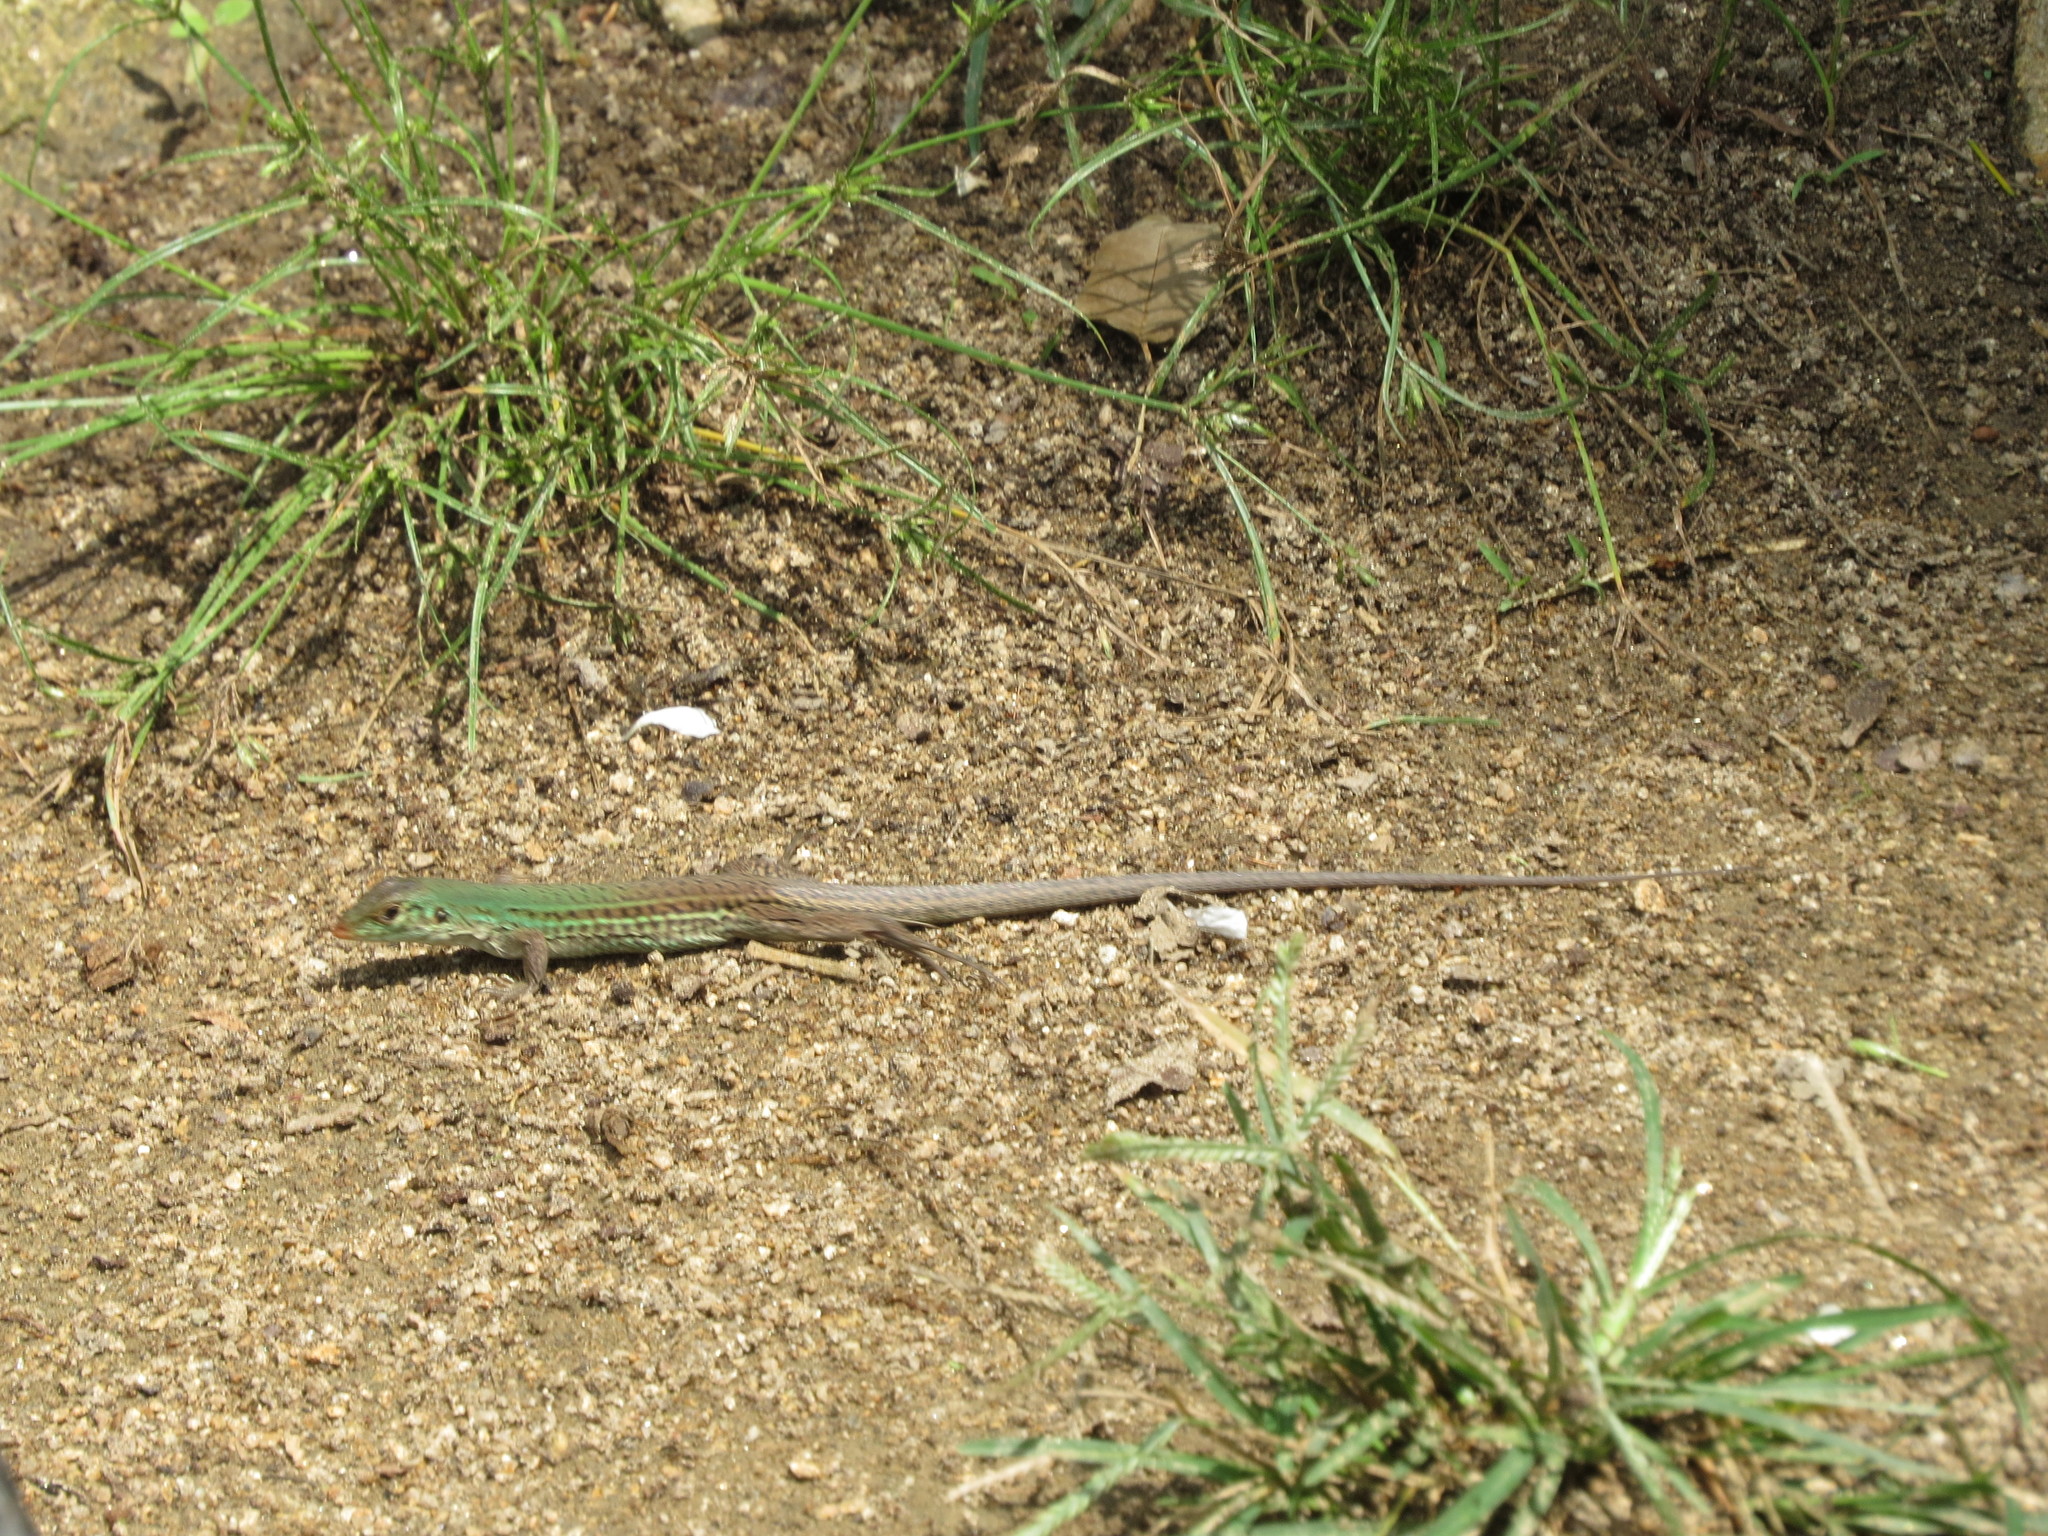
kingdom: Animalia
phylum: Chordata
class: Squamata
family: Teiidae
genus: Ameiva
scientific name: Ameiva bifrontata
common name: Cope's ameiva
